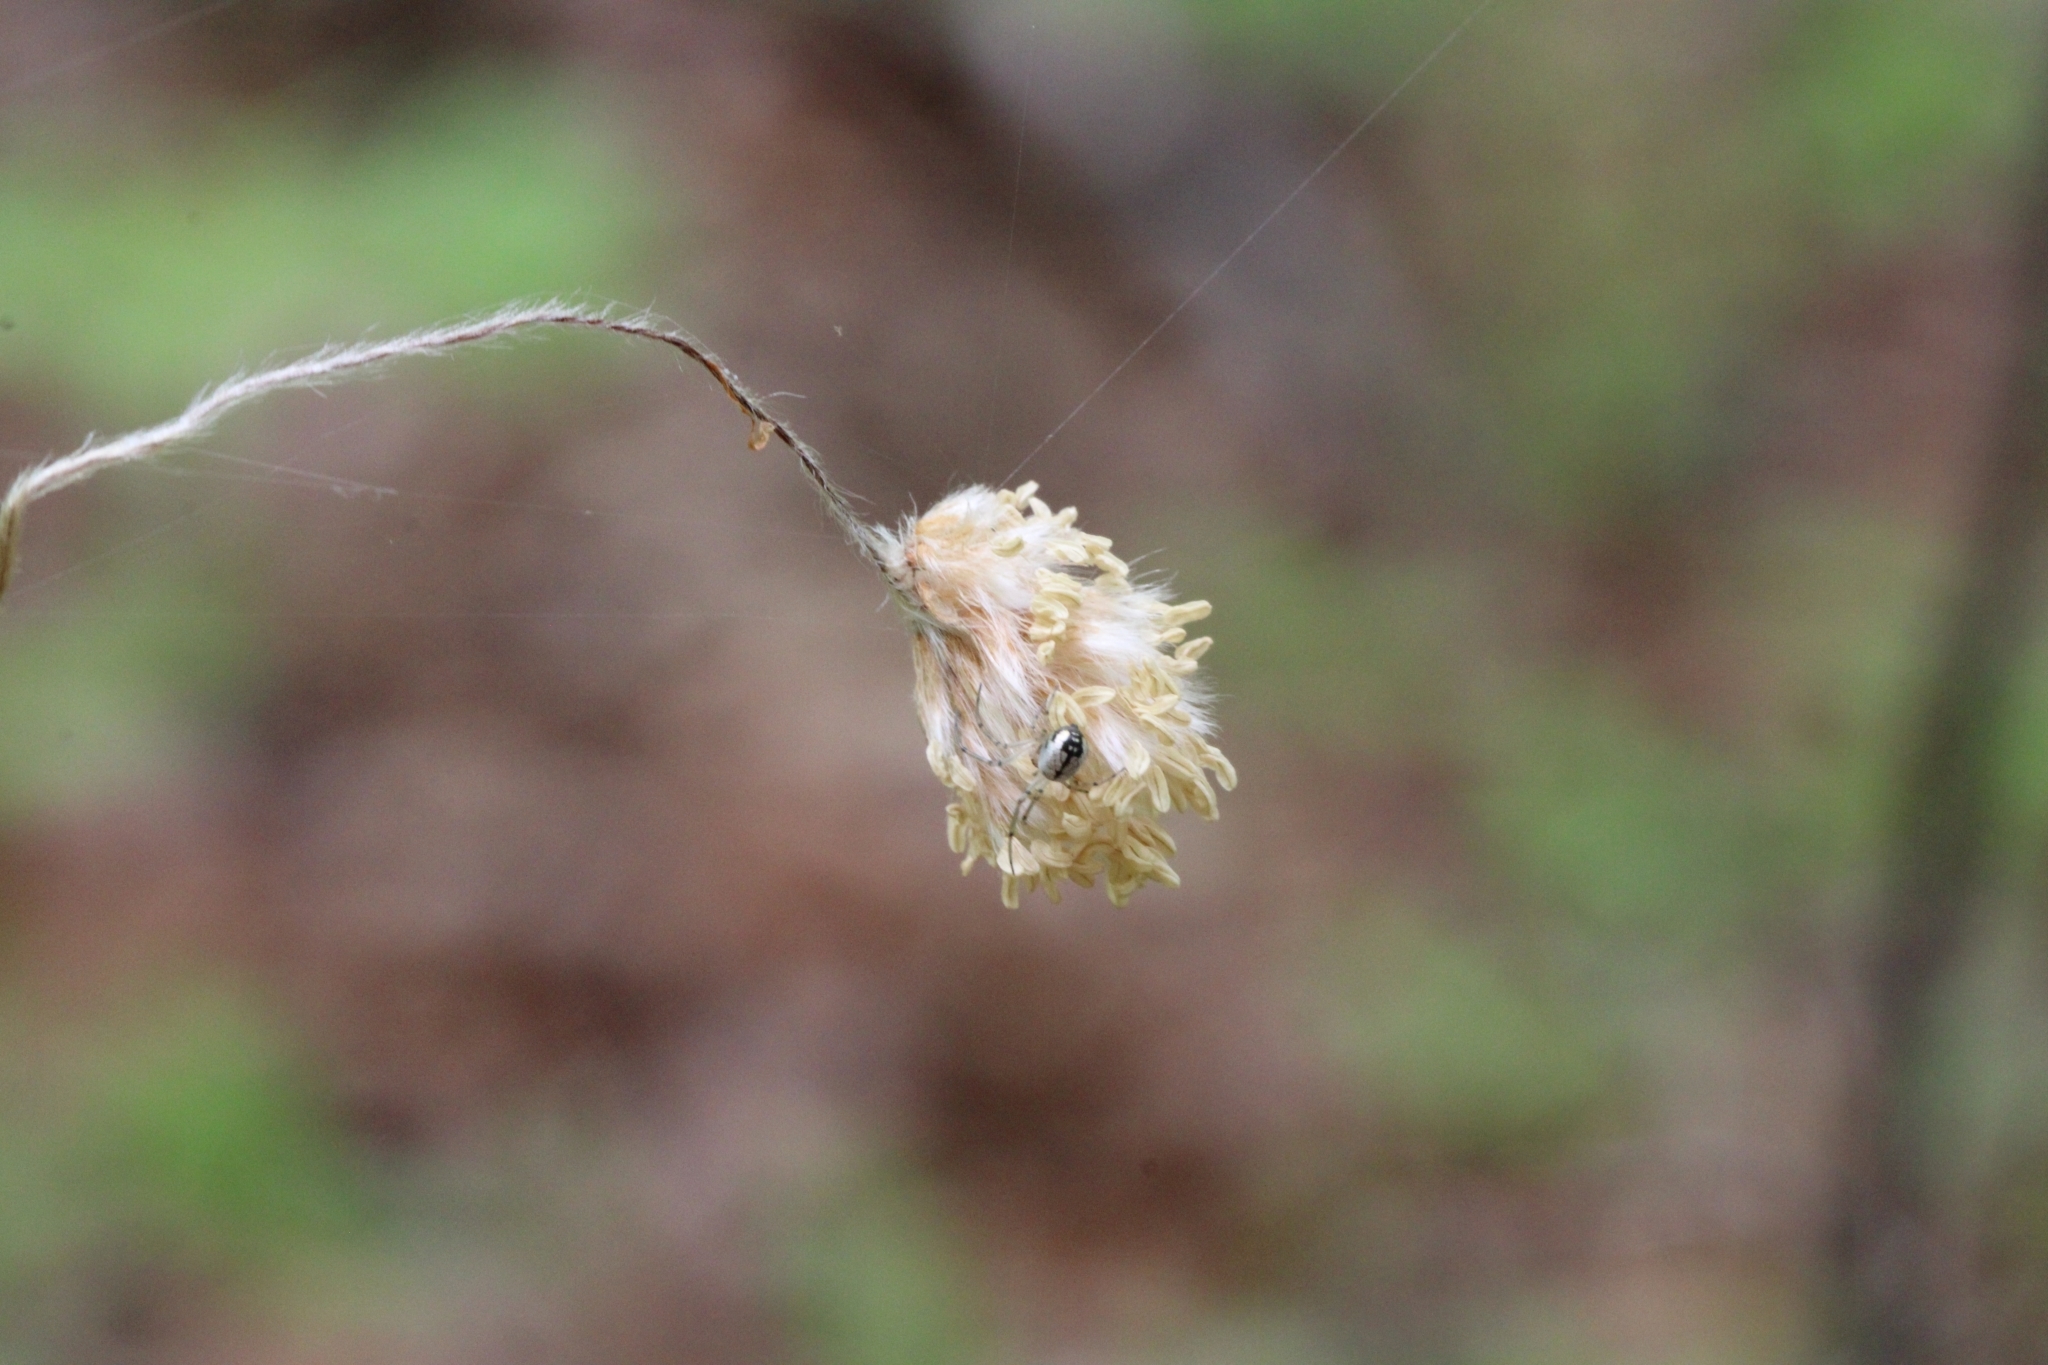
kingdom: Animalia
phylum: Arthropoda
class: Arachnida
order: Araneae
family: Tetragnathidae
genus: Leucauge
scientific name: Leucauge venusta
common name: Longjawed orb weavers
